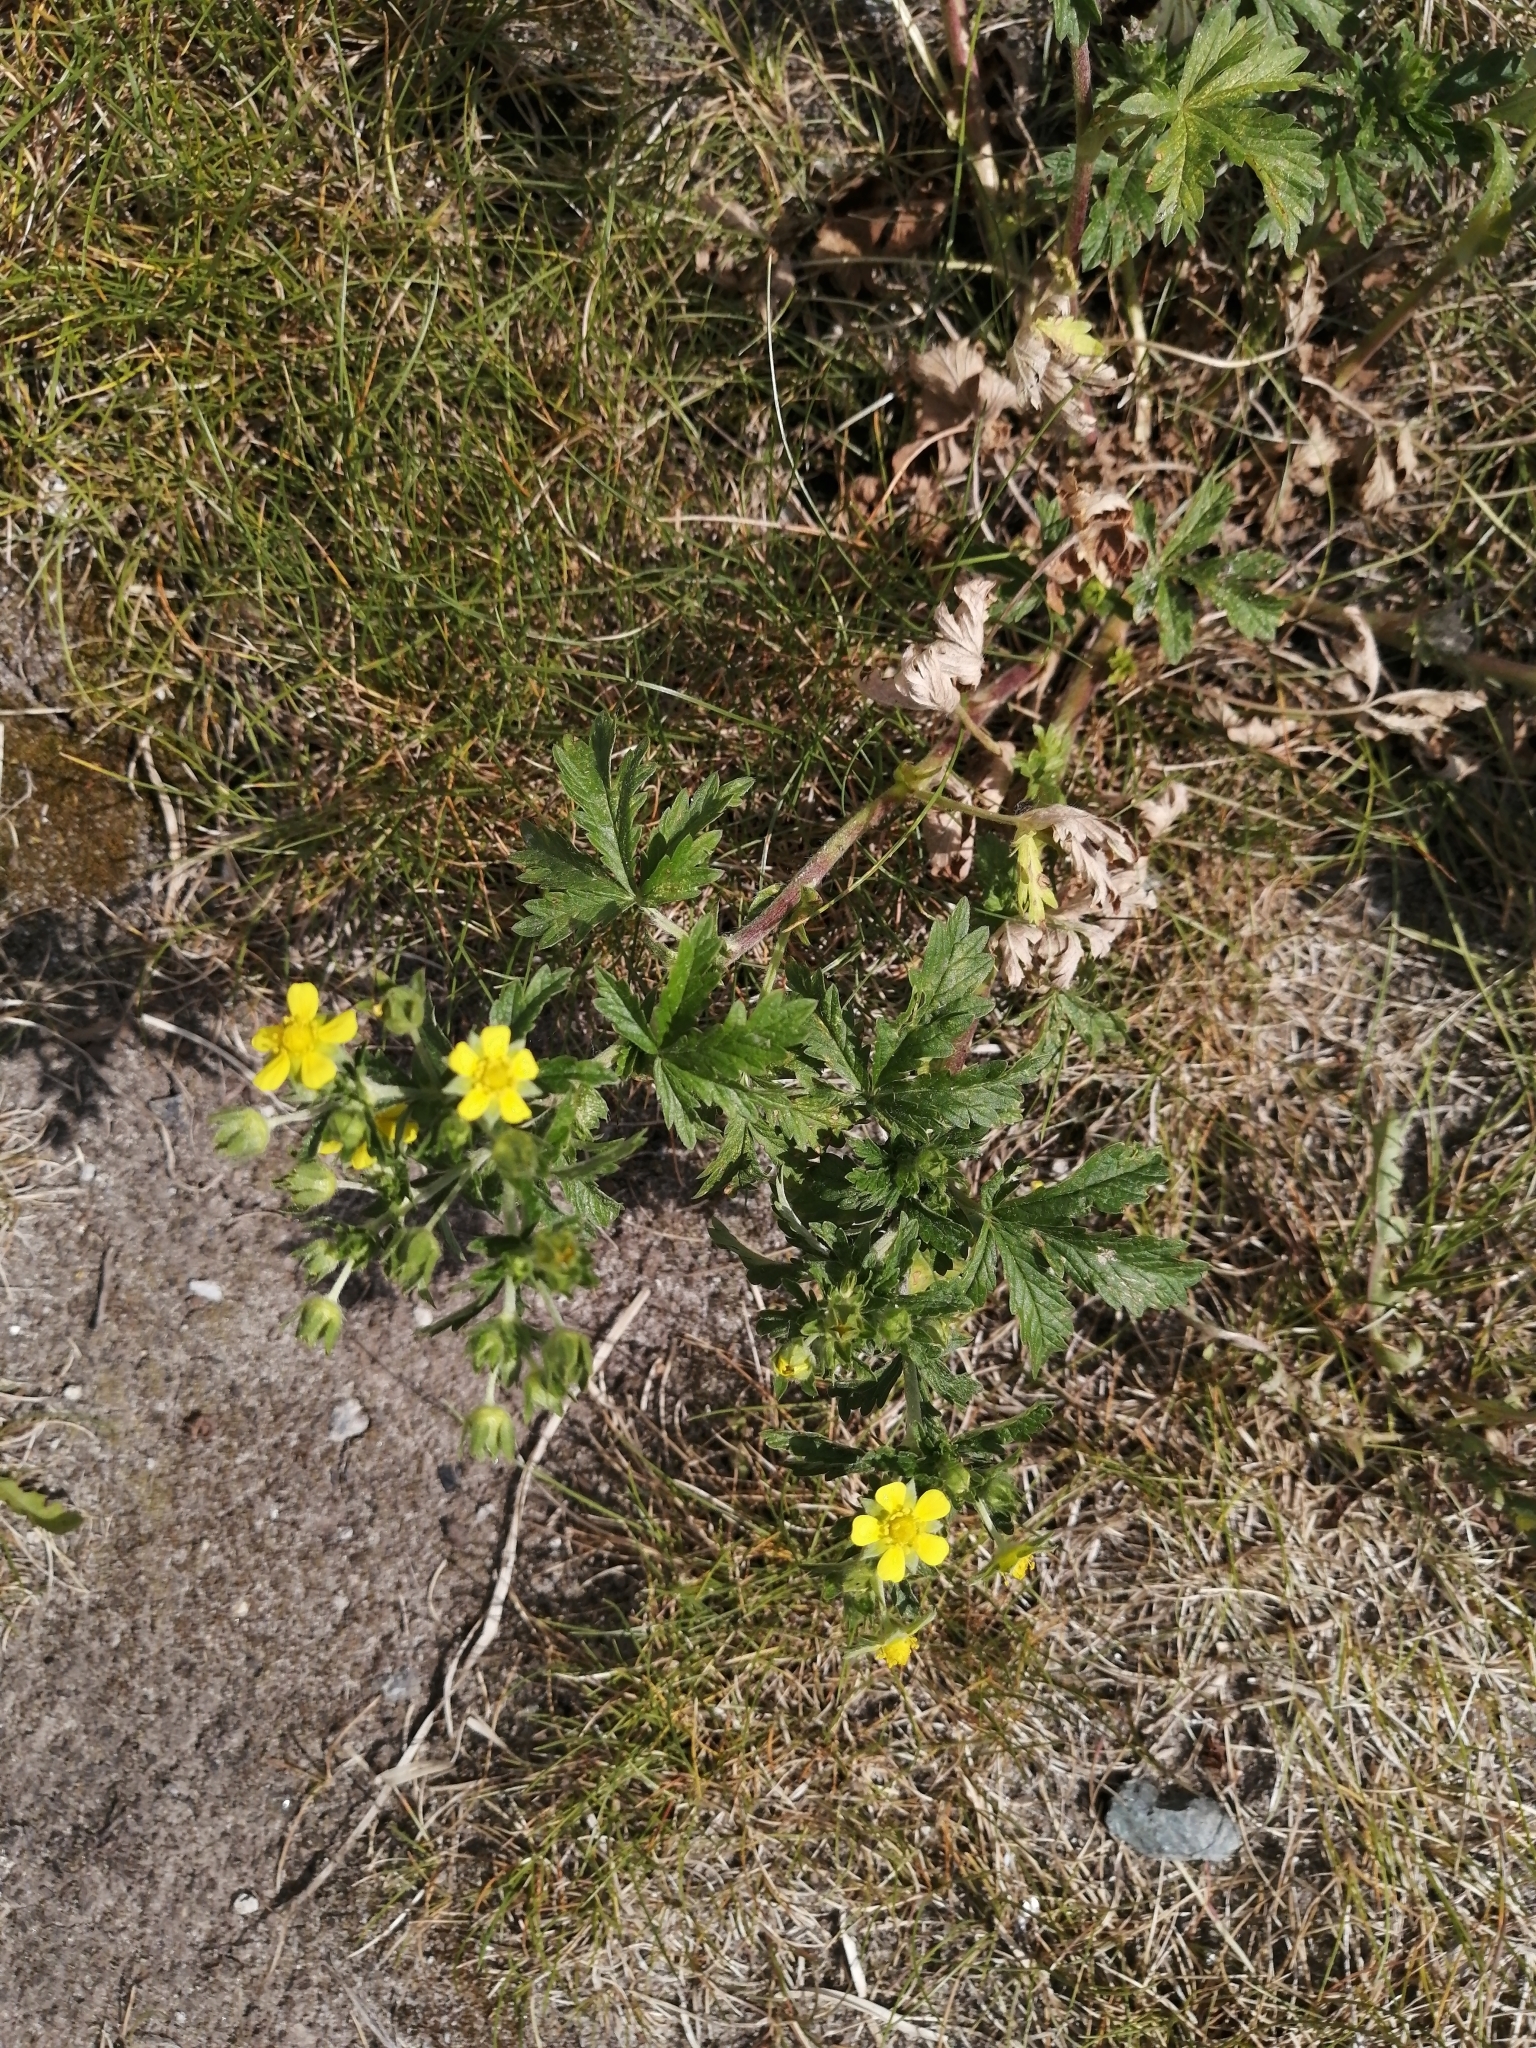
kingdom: Plantae
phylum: Tracheophyta
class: Magnoliopsida
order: Rosales
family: Rosaceae
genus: Potentilla
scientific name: Potentilla argentea
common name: Hoary cinquefoil
